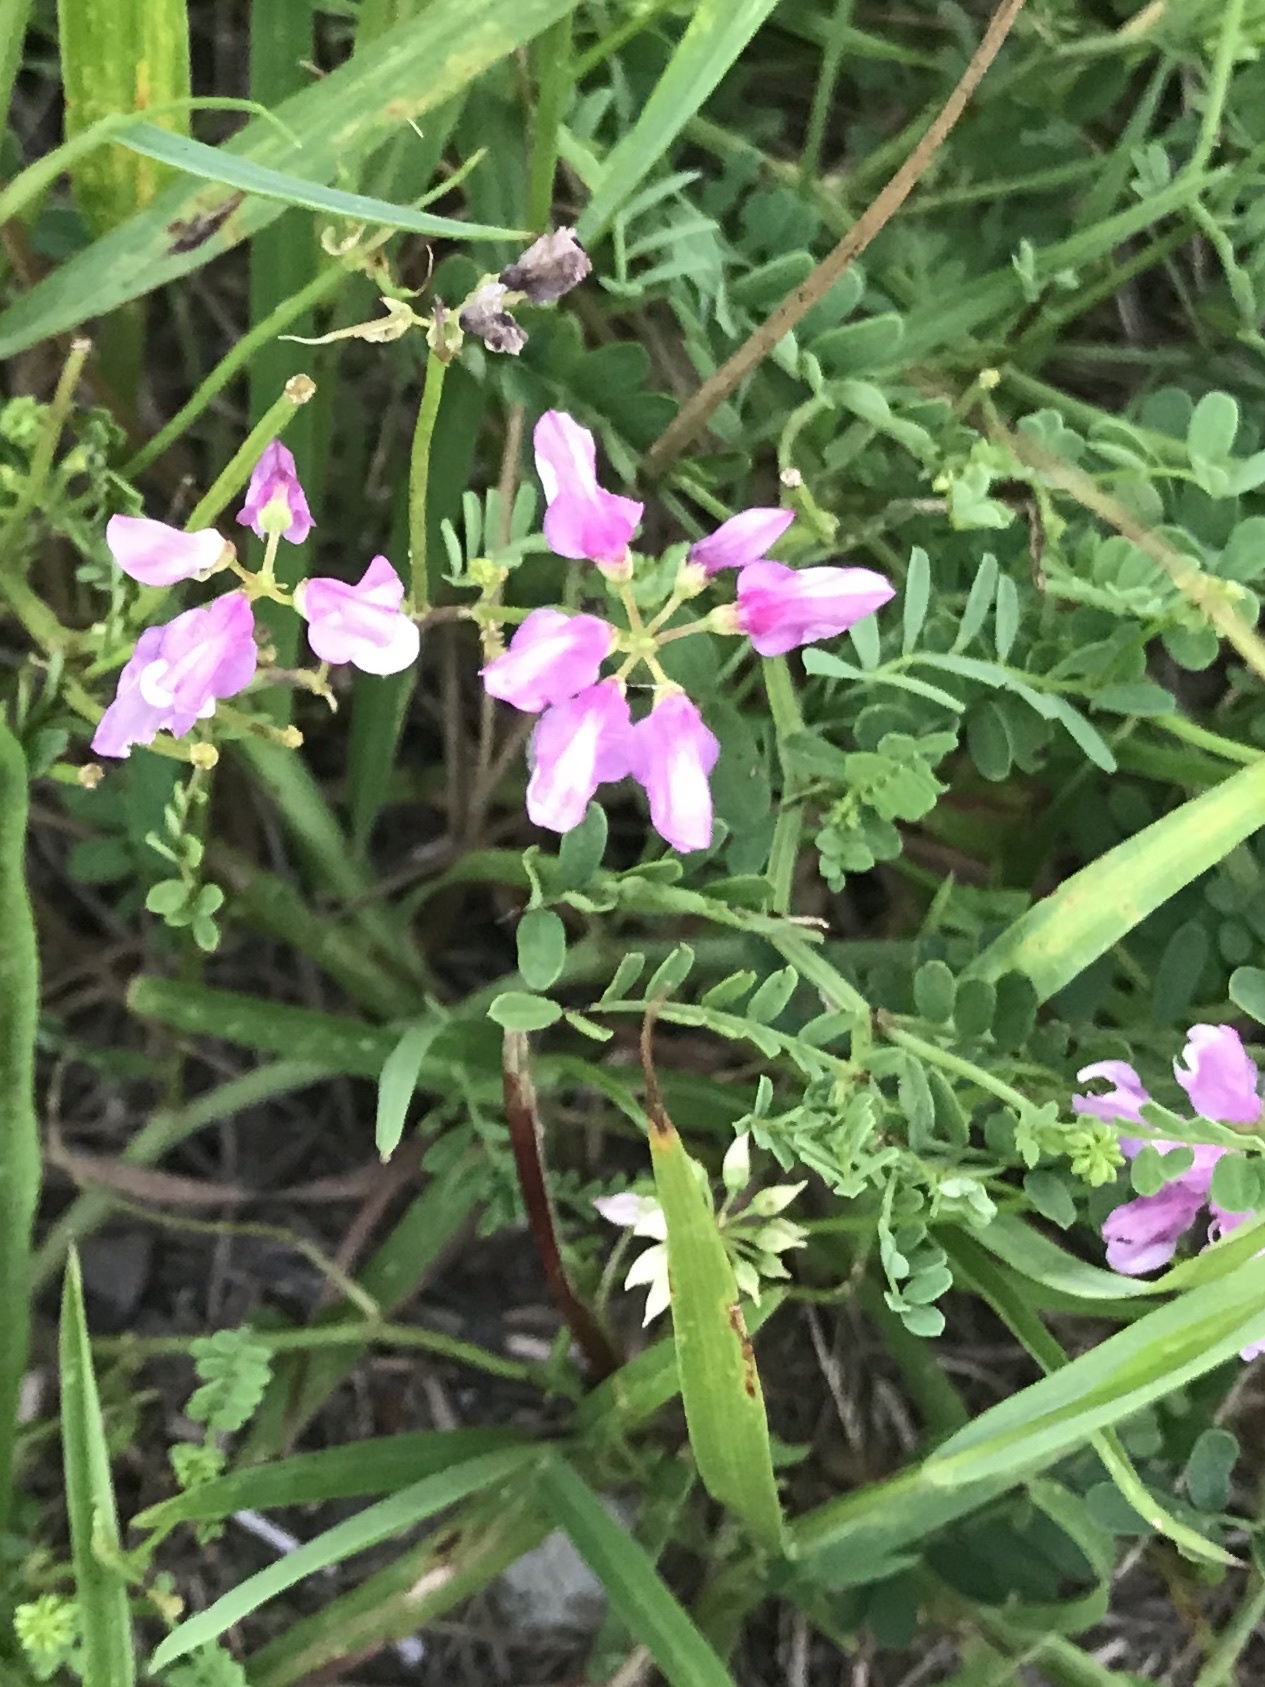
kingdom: Plantae
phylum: Tracheophyta
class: Magnoliopsida
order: Fabales
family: Fabaceae
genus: Coronilla
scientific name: Coronilla varia
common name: Crownvetch
